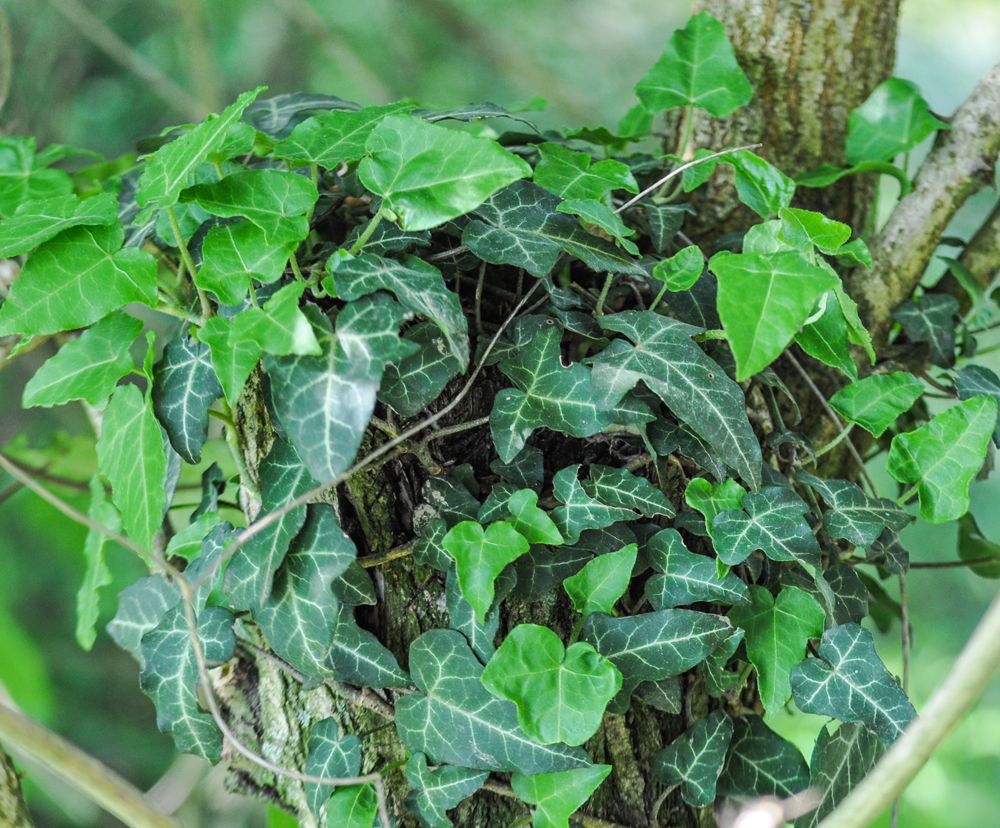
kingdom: Plantae
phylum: Tracheophyta
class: Magnoliopsida
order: Apiales
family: Araliaceae
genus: Hedera
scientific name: Hedera helix
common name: Ivy
